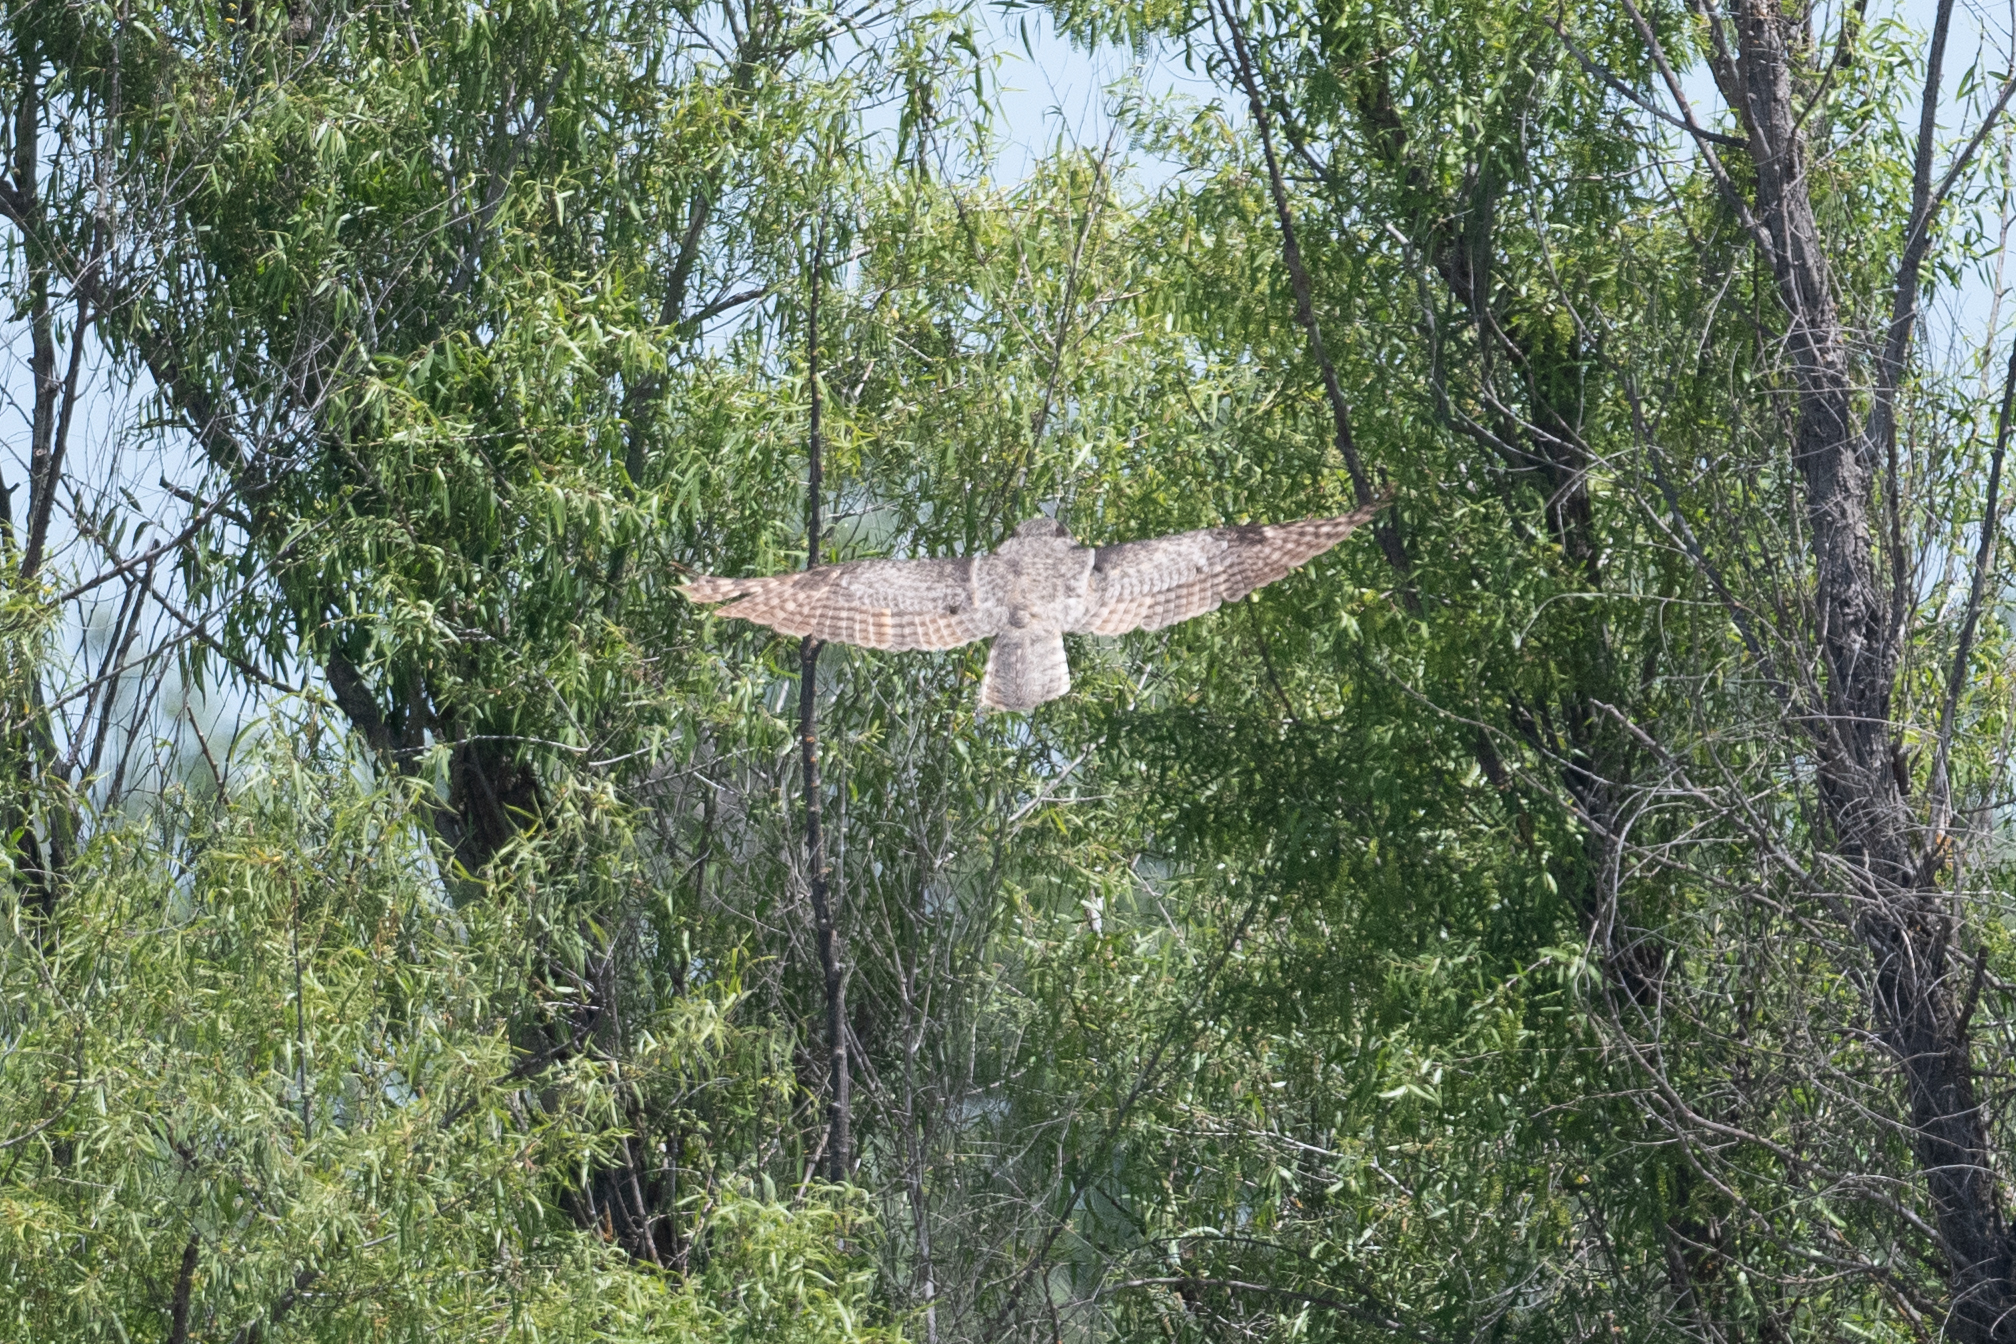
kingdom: Animalia
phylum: Chordata
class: Aves
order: Strigiformes
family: Strigidae
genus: Bubo
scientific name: Bubo virginianus
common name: Great horned owl
